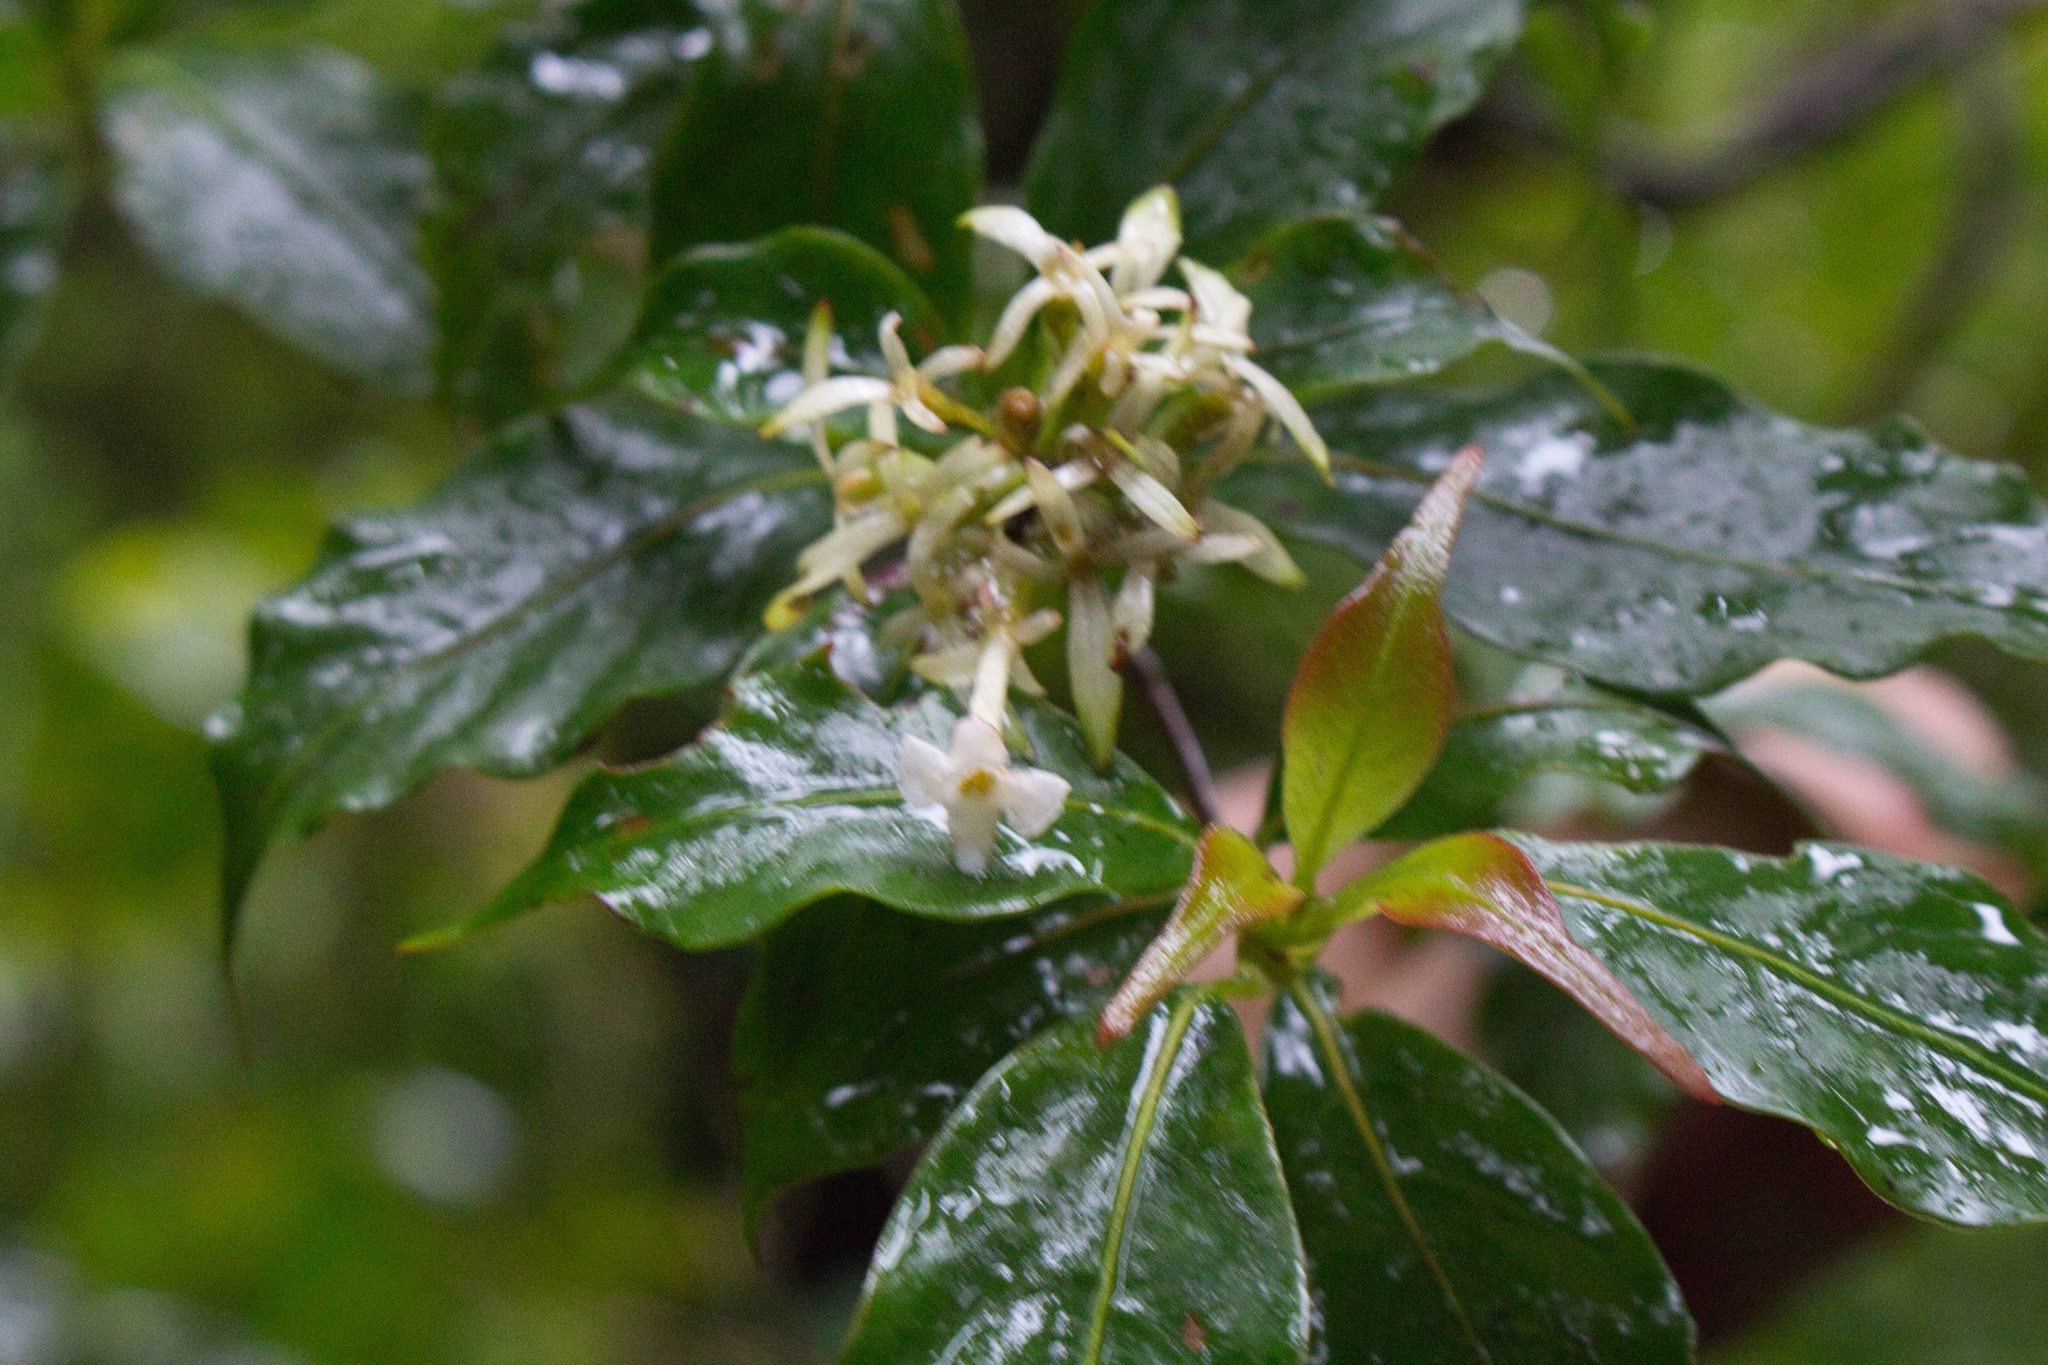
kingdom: Plantae
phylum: Tracheophyta
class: Magnoliopsida
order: Gentianales
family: Rubiaceae
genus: Arachnothryx
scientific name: Arachnothryx monteverdensis
